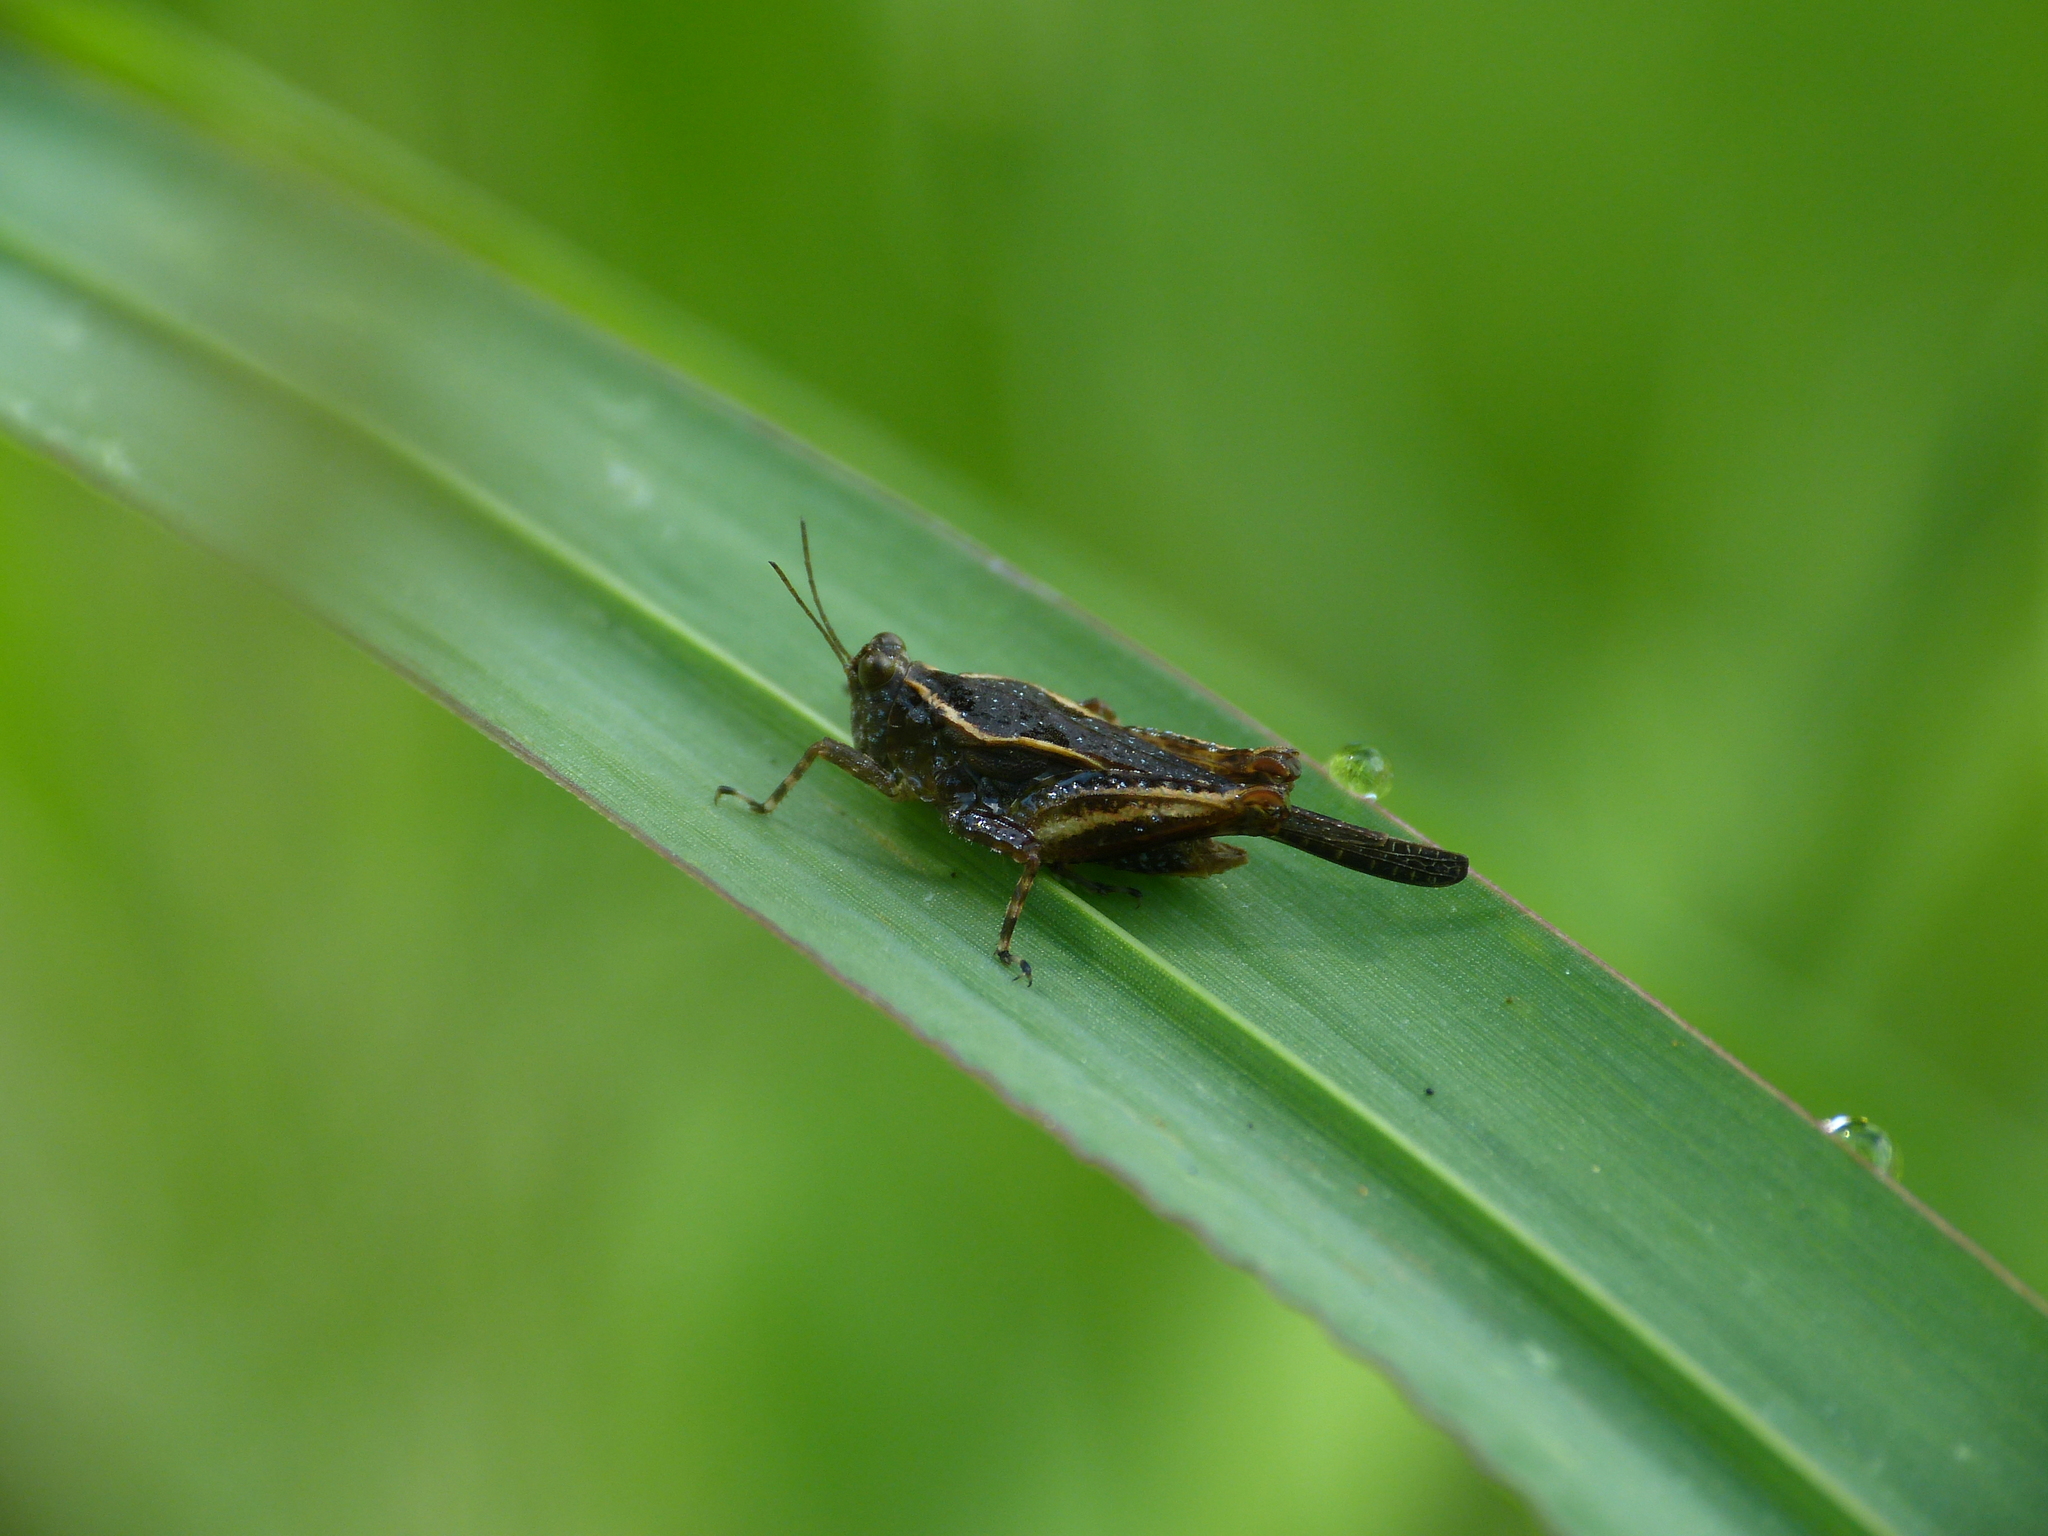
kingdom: Animalia
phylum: Arthropoda
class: Insecta
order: Orthoptera
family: Tetrigidae
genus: Paratettix
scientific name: Paratettix meridionalis
